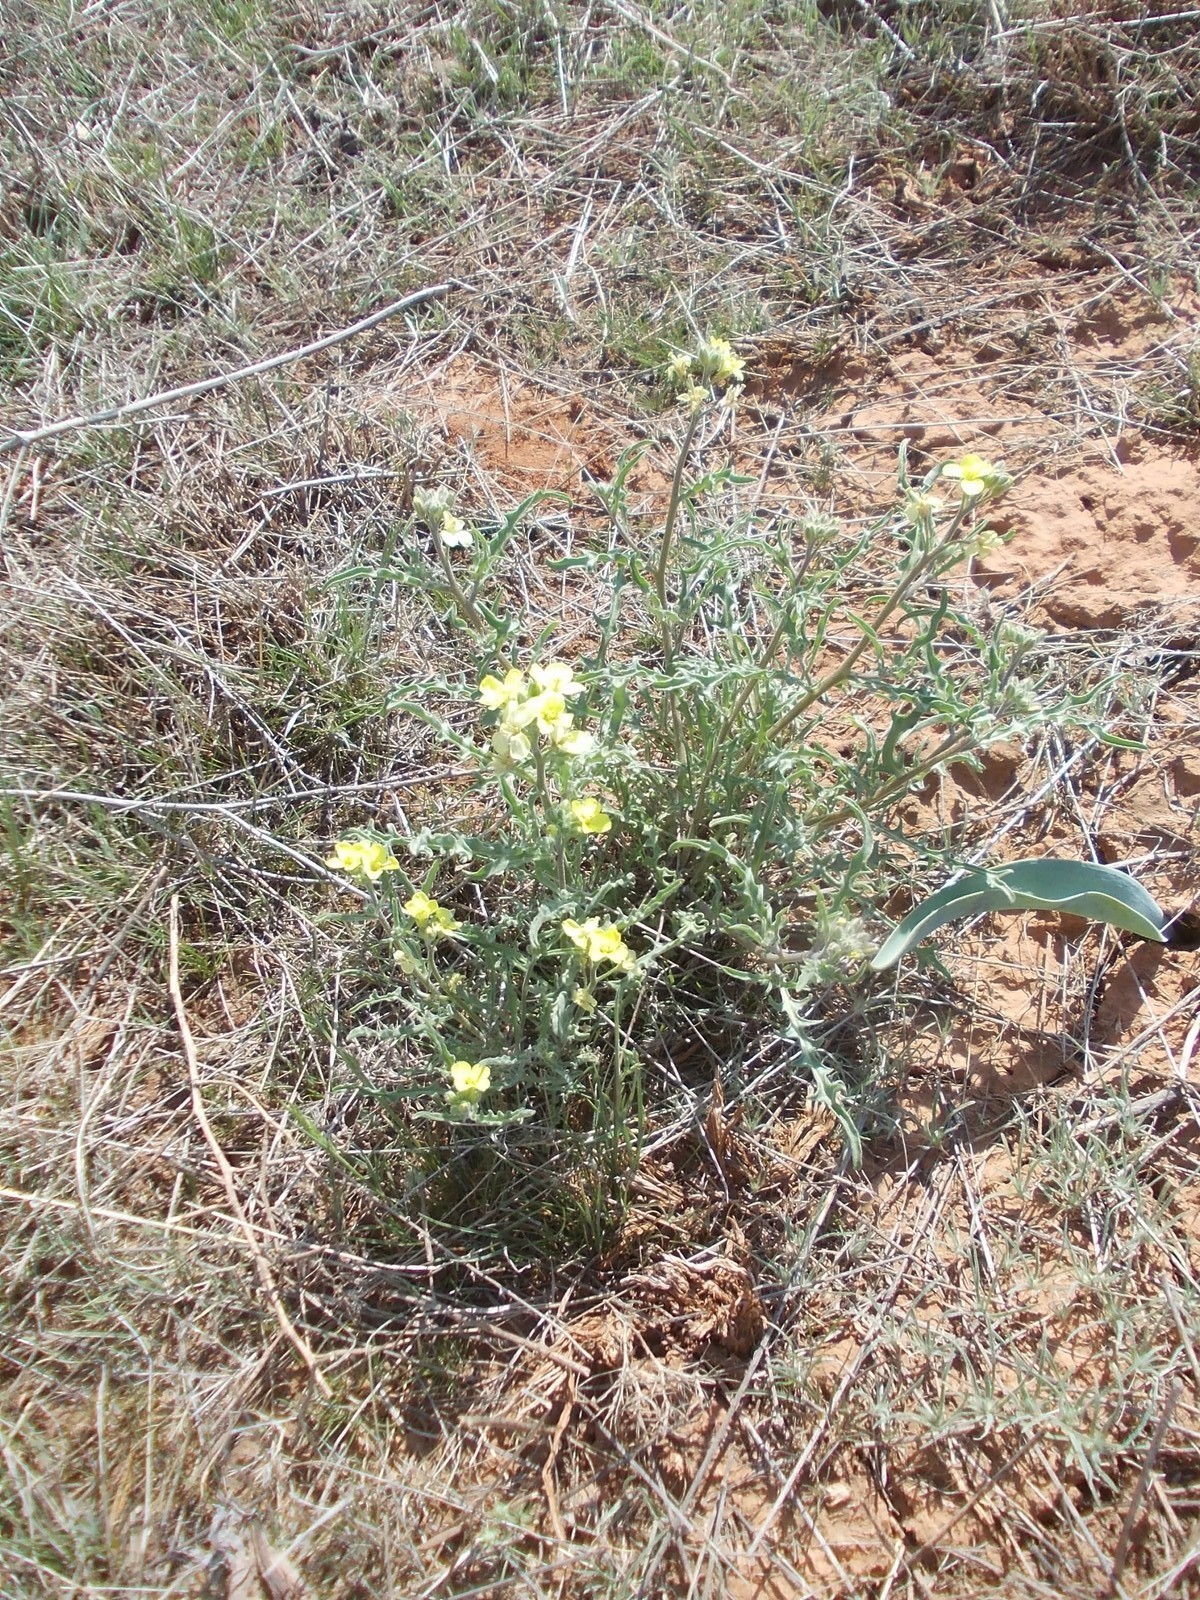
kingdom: Plantae
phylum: Tracheophyta
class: Magnoliopsida
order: Brassicales
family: Brassicaceae
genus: Sterigmostemum
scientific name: Sterigmostemum caspicum
